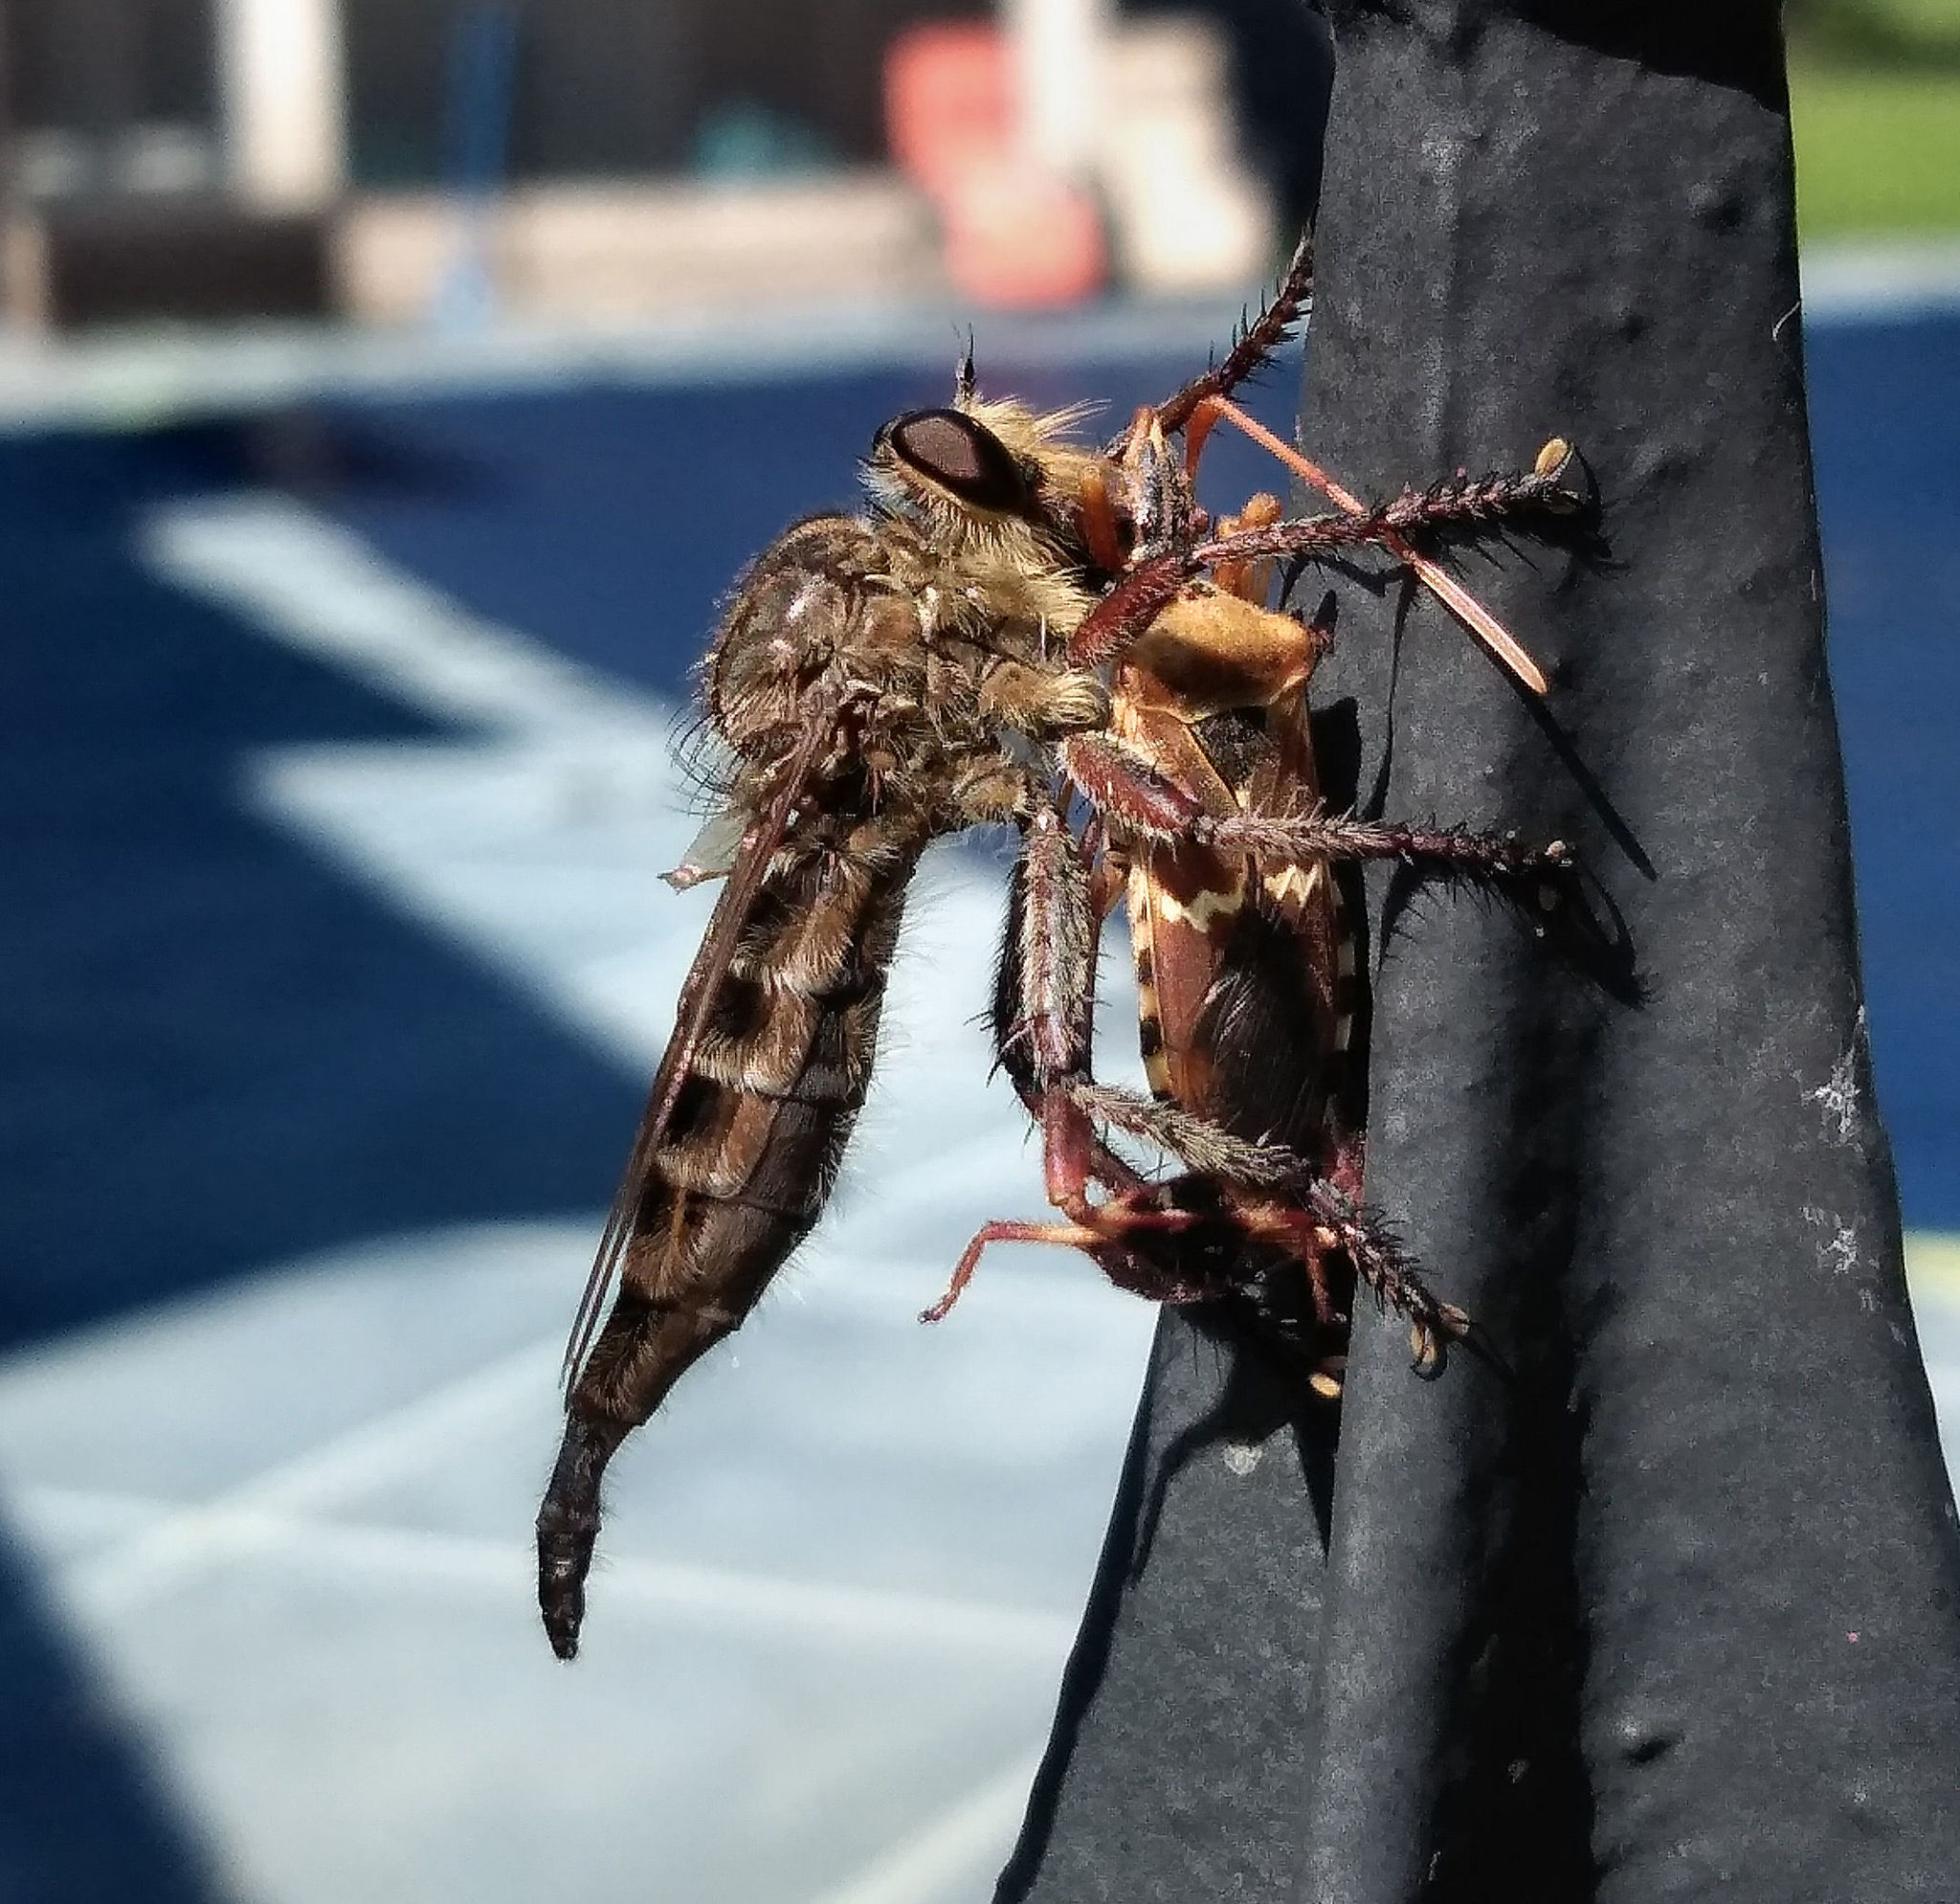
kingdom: Animalia
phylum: Arthropoda
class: Insecta
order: Hemiptera
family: Coreidae
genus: Leptoglossus
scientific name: Leptoglossus clypealis
